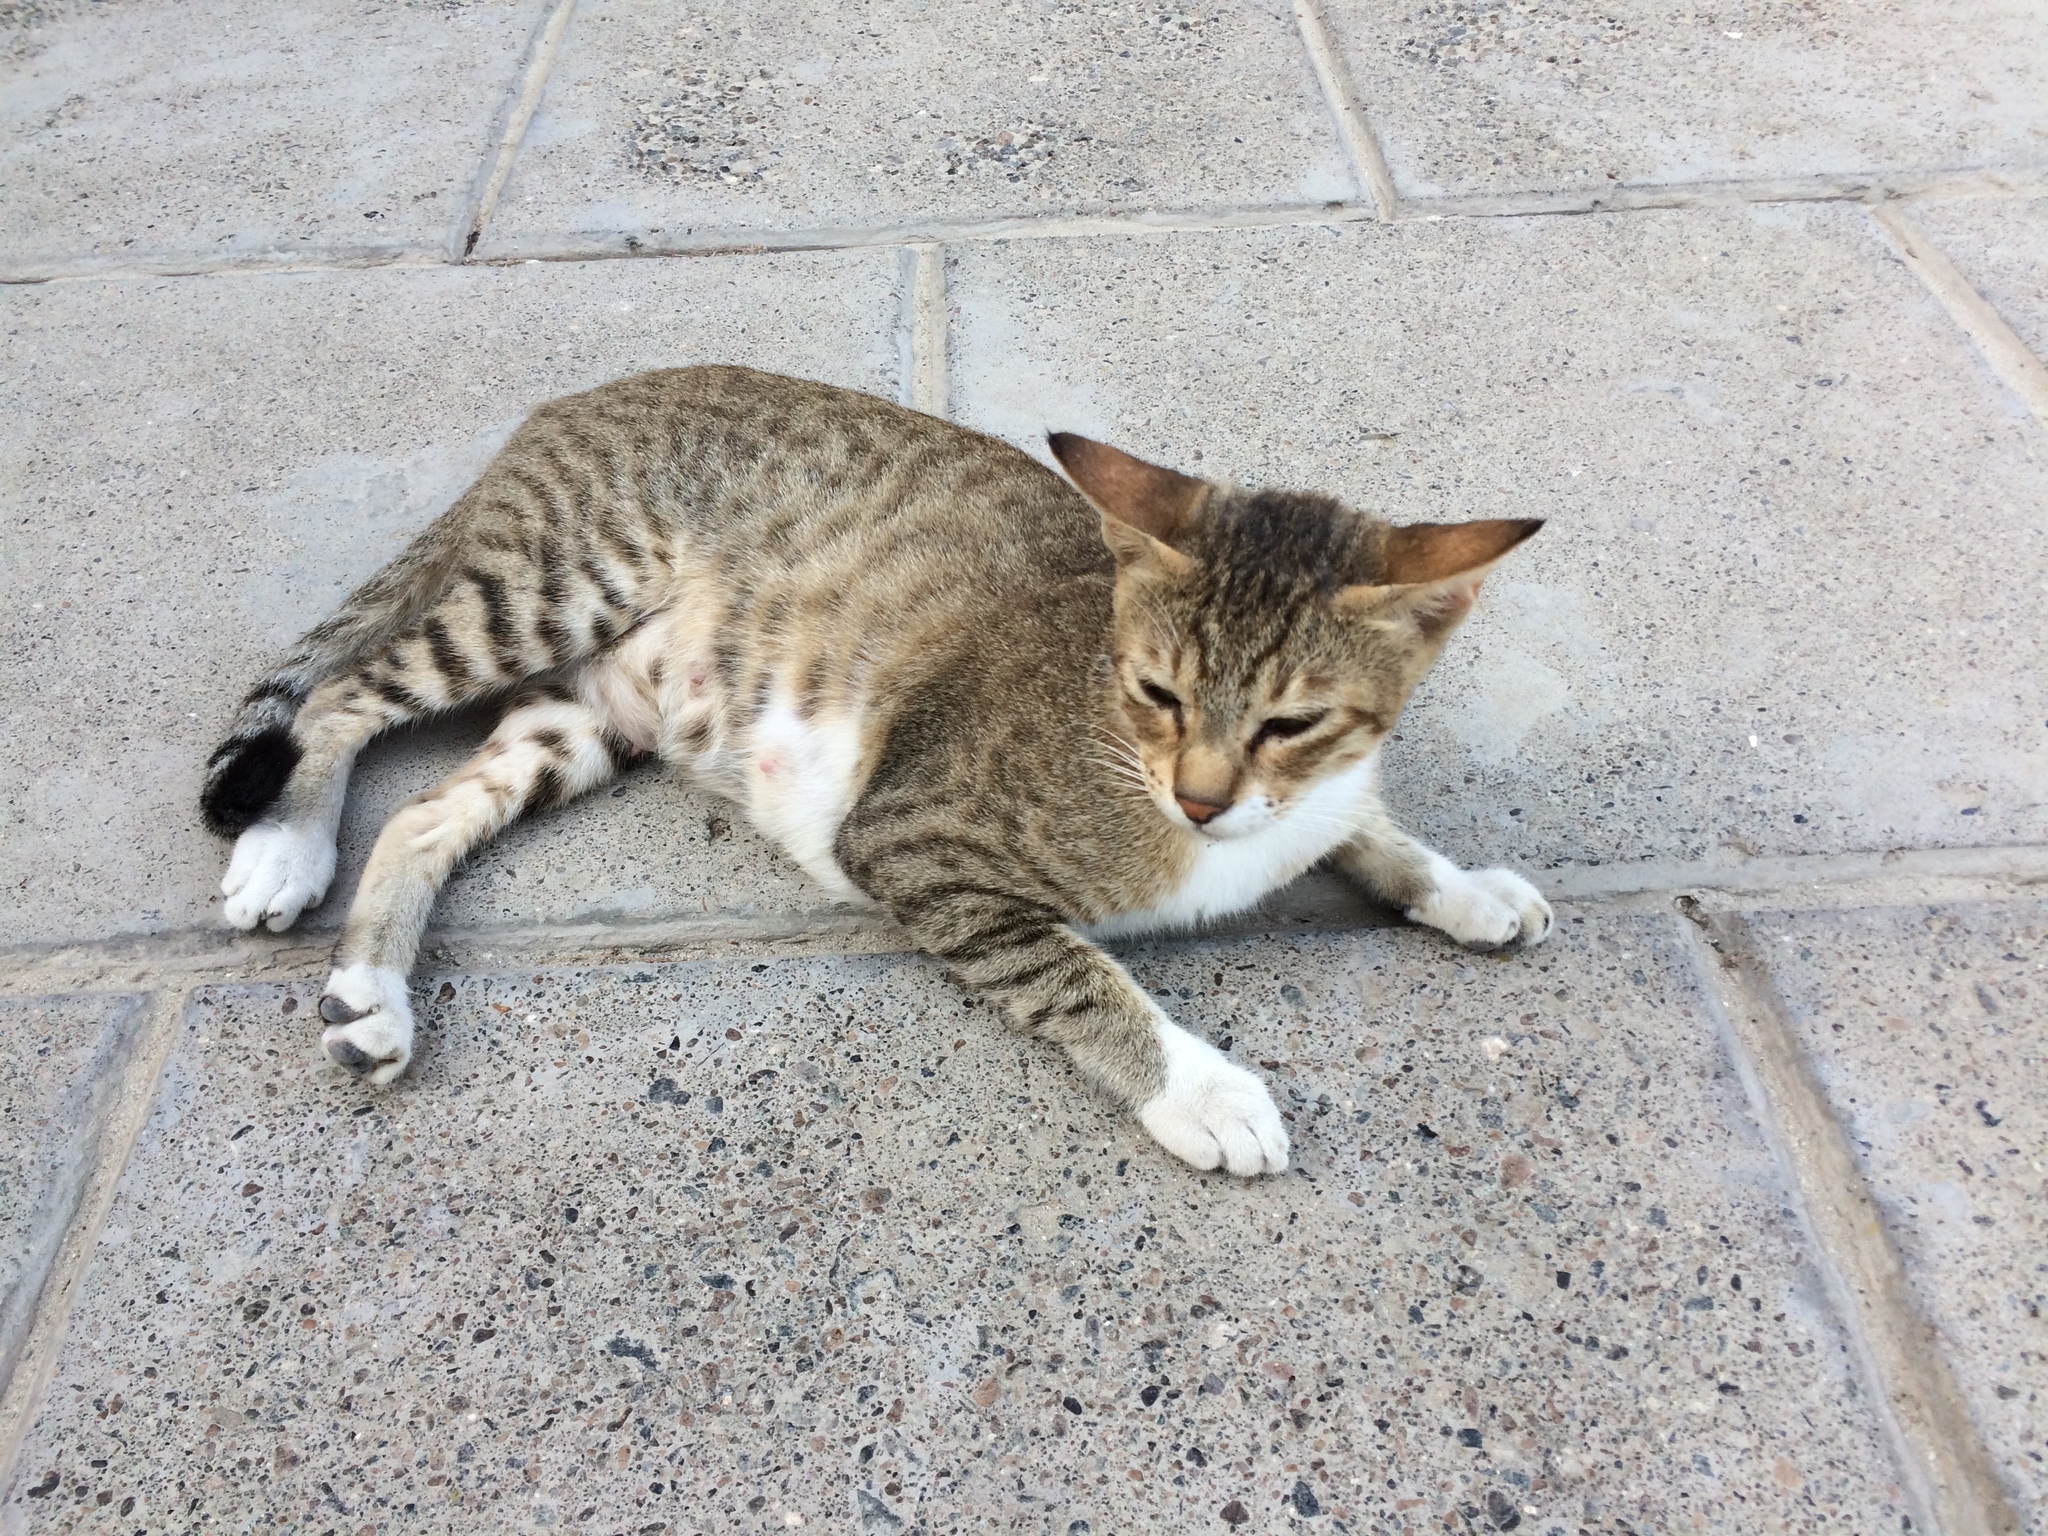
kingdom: Animalia
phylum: Chordata
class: Mammalia
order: Carnivora
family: Felidae
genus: Felis
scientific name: Felis catus
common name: Domestic cat
